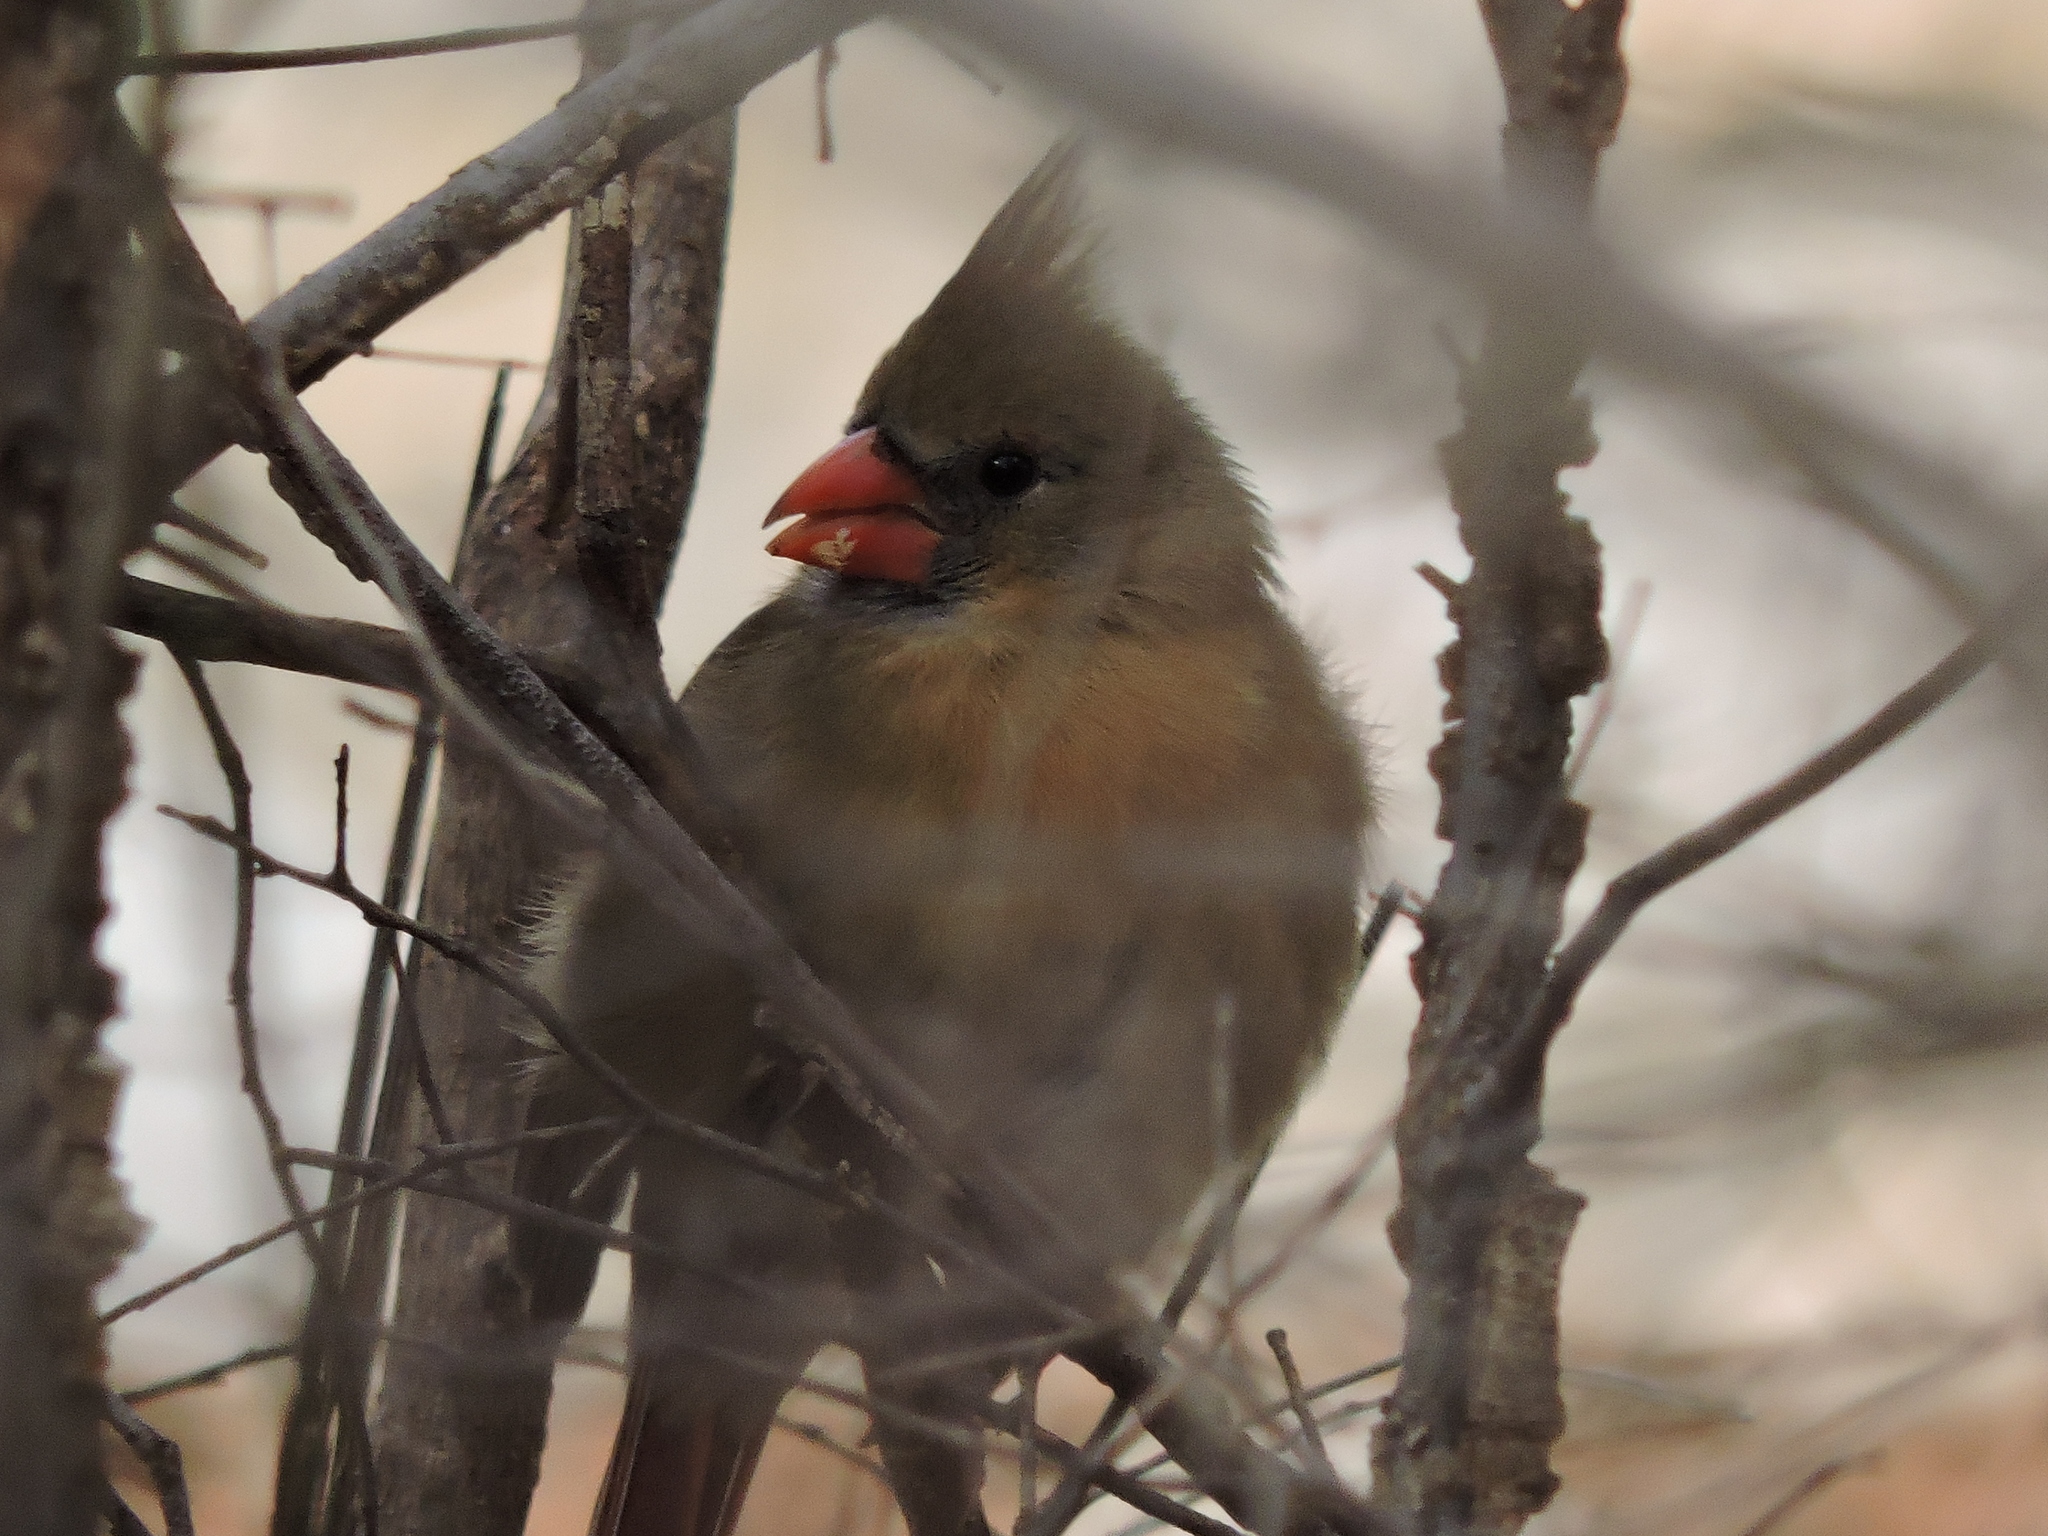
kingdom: Animalia
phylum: Chordata
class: Aves
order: Passeriformes
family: Cardinalidae
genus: Cardinalis
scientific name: Cardinalis cardinalis
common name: Northern cardinal
